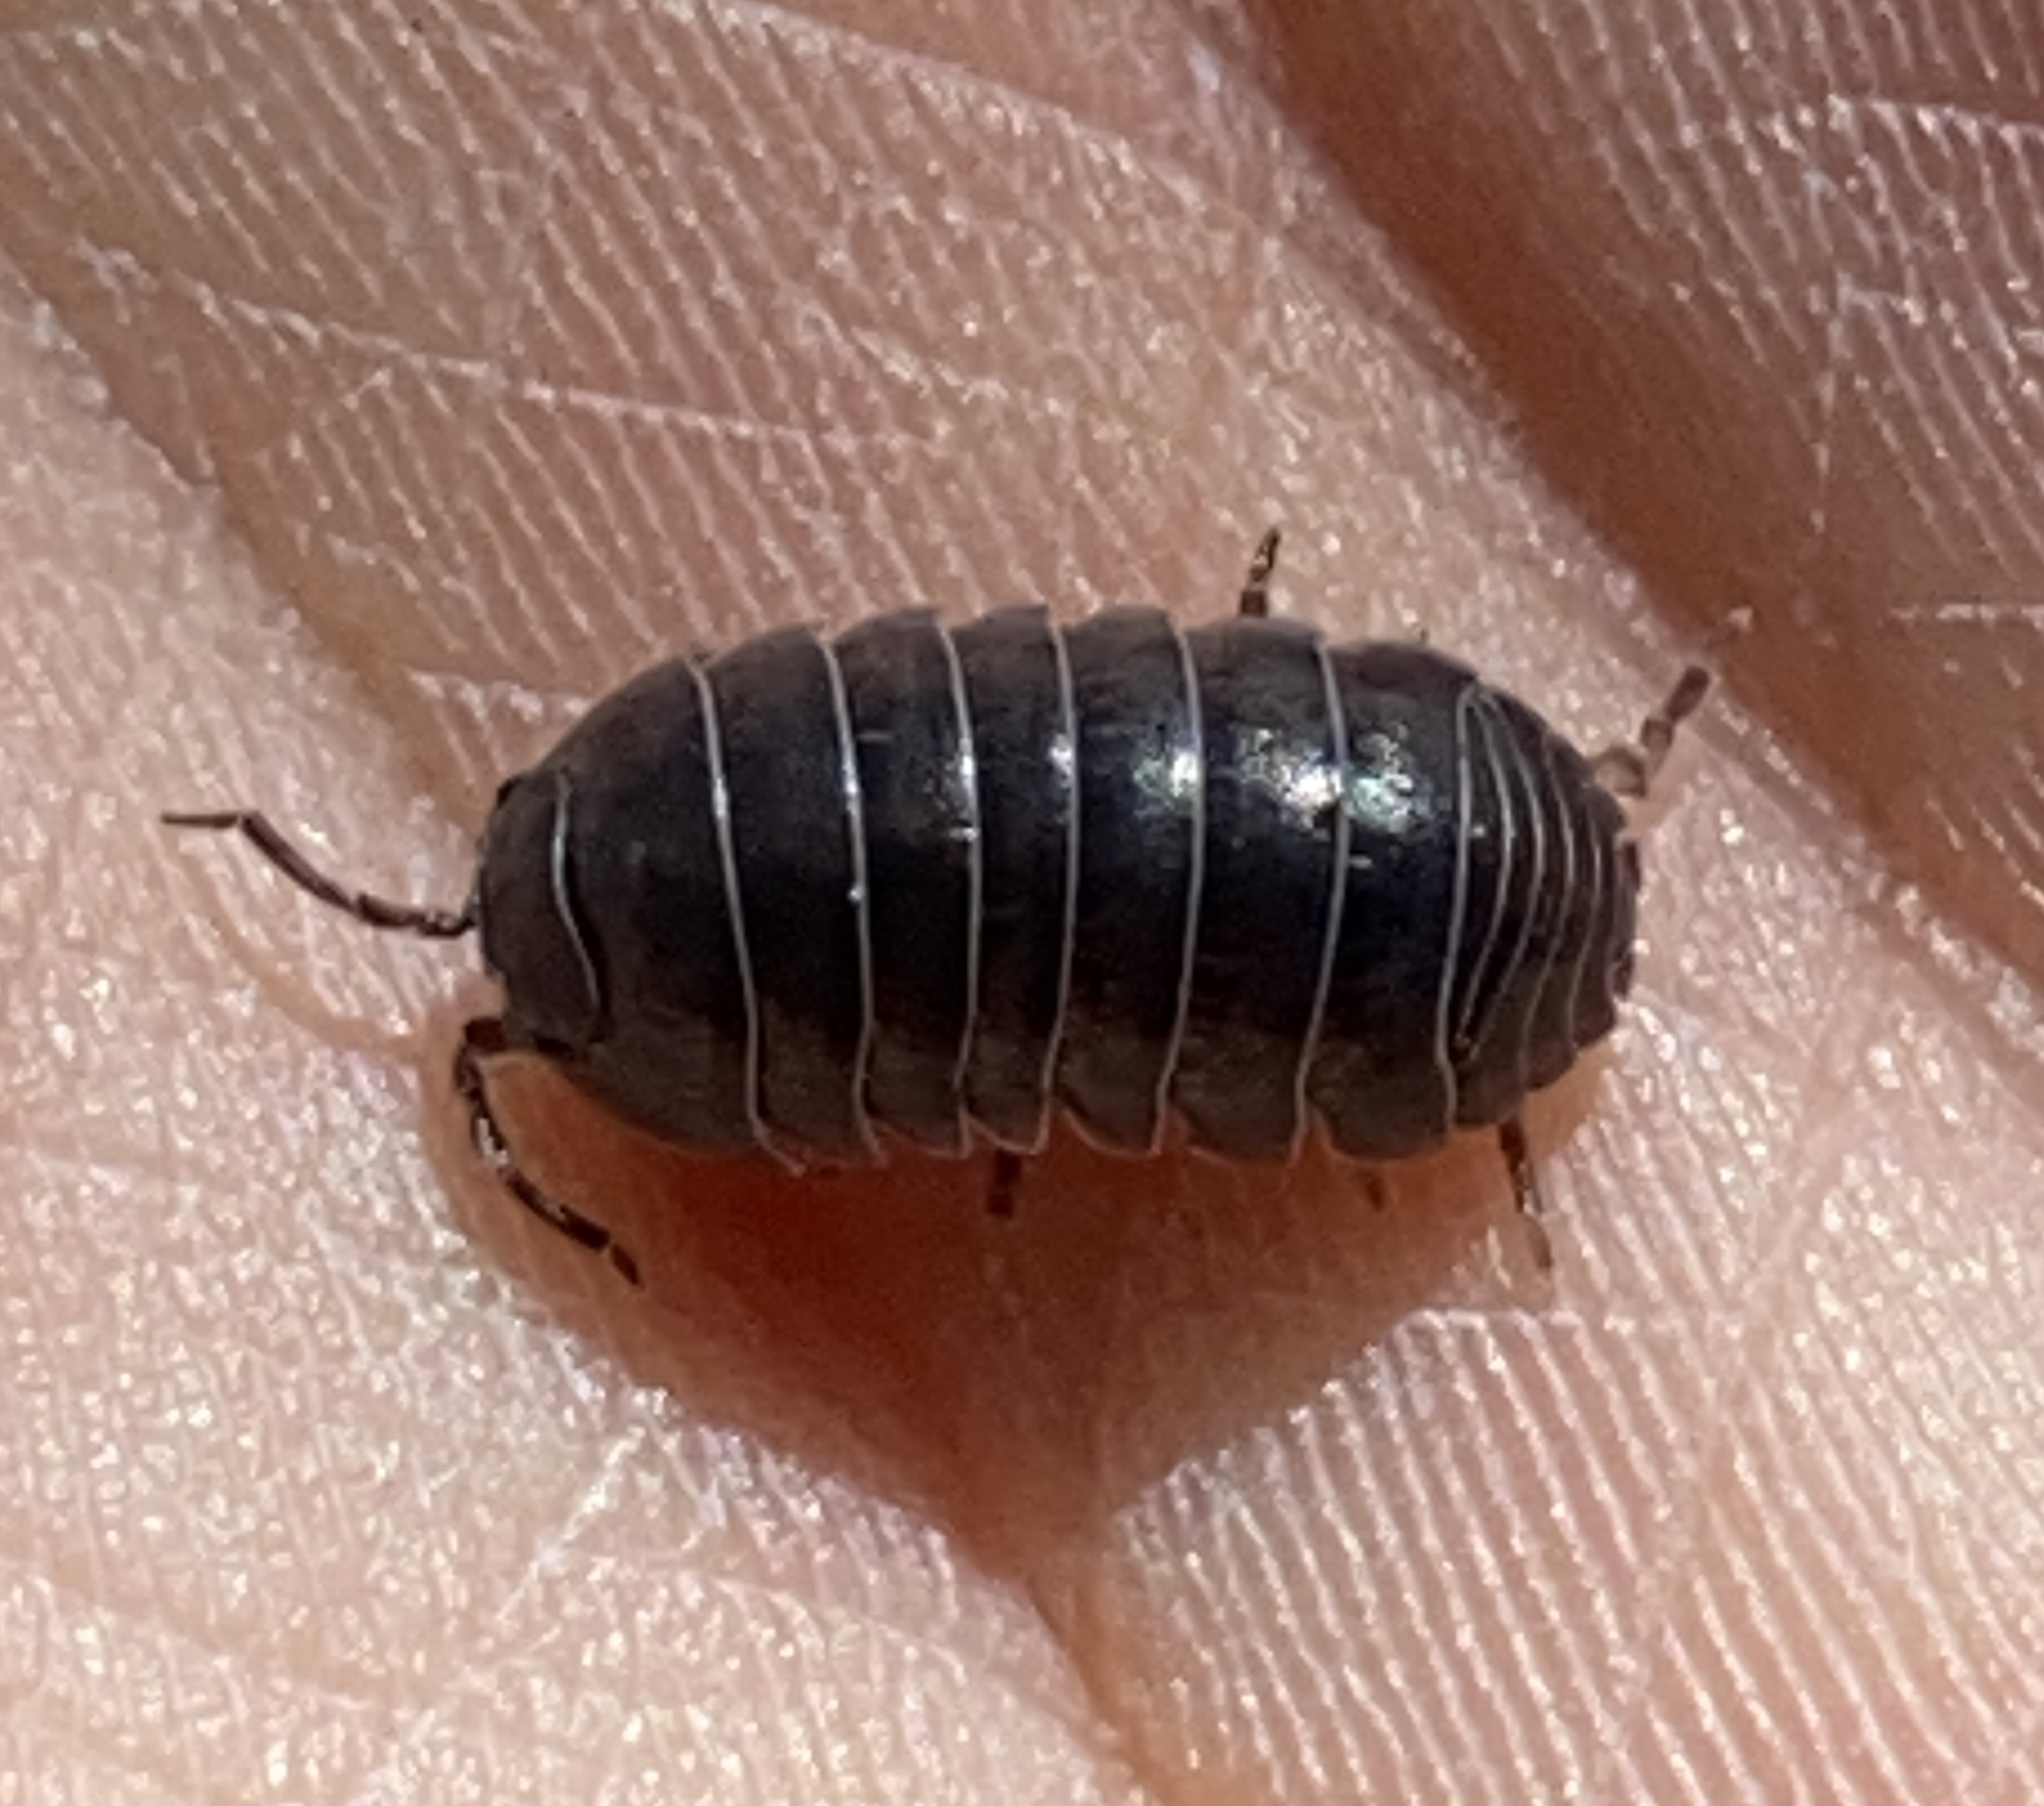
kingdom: Animalia
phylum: Arthropoda
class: Malacostraca
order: Isopoda
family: Armadillidiidae
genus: Armadillidium
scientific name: Armadillidium vulgare
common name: Common pill woodlouse
